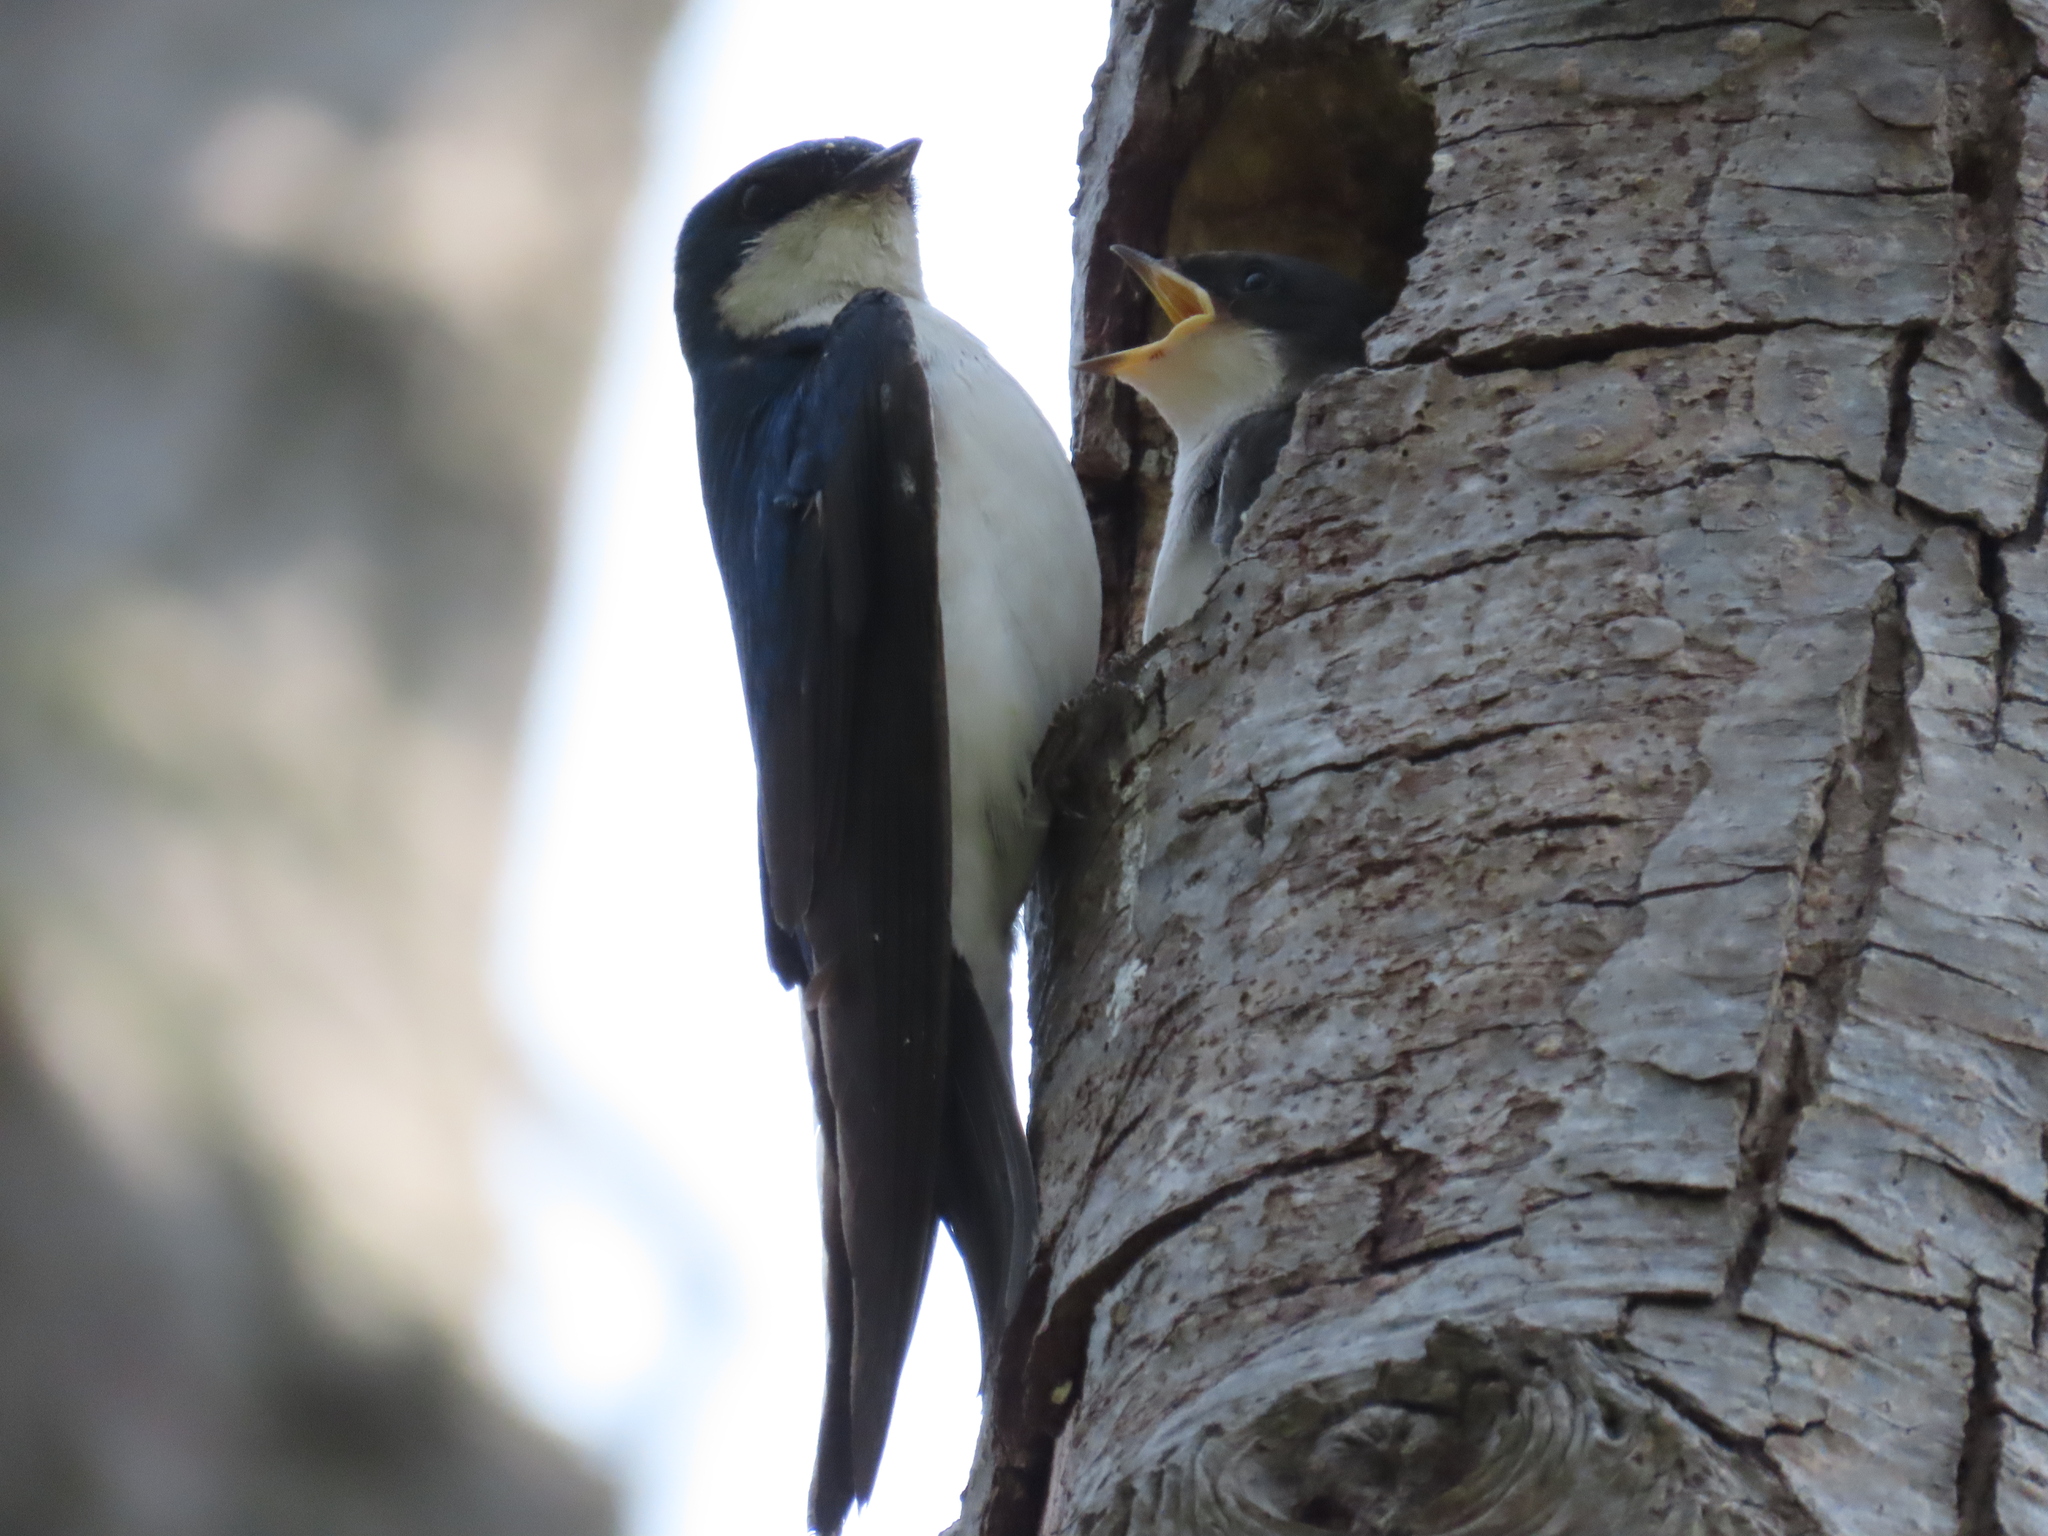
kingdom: Animalia
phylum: Chordata
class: Aves
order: Passeriformes
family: Hirundinidae
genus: Tachycineta
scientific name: Tachycineta bicolor
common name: Tree swallow
